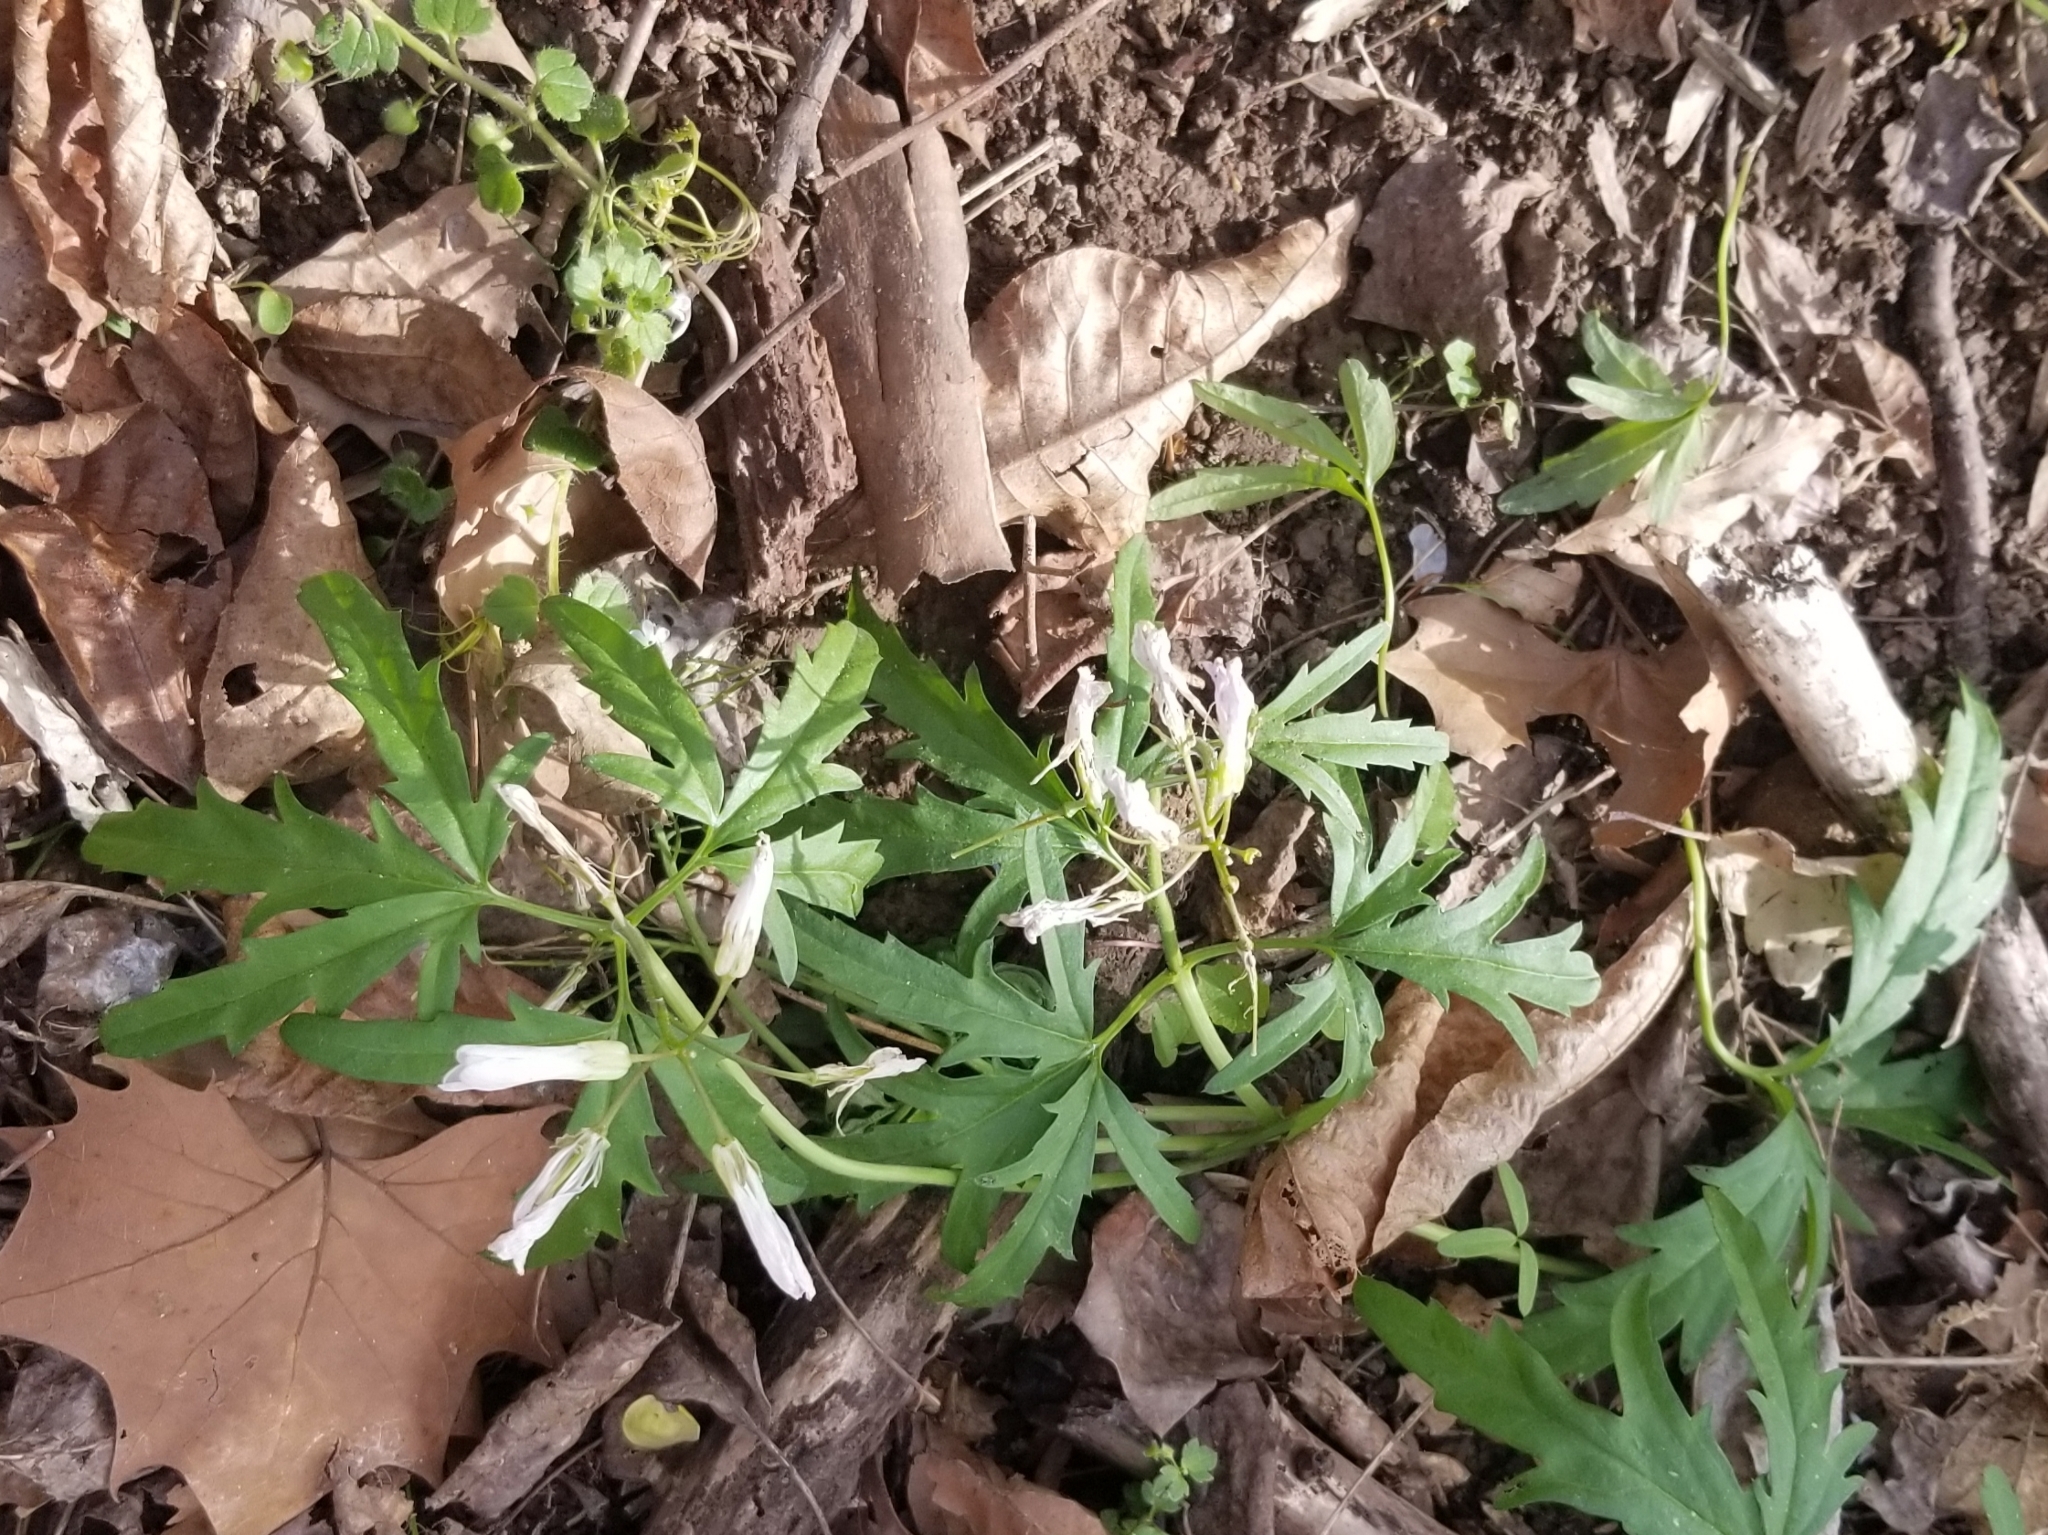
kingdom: Plantae
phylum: Tracheophyta
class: Magnoliopsida
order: Brassicales
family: Brassicaceae
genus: Cardamine
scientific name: Cardamine concatenata
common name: Cut-leaf toothcup
